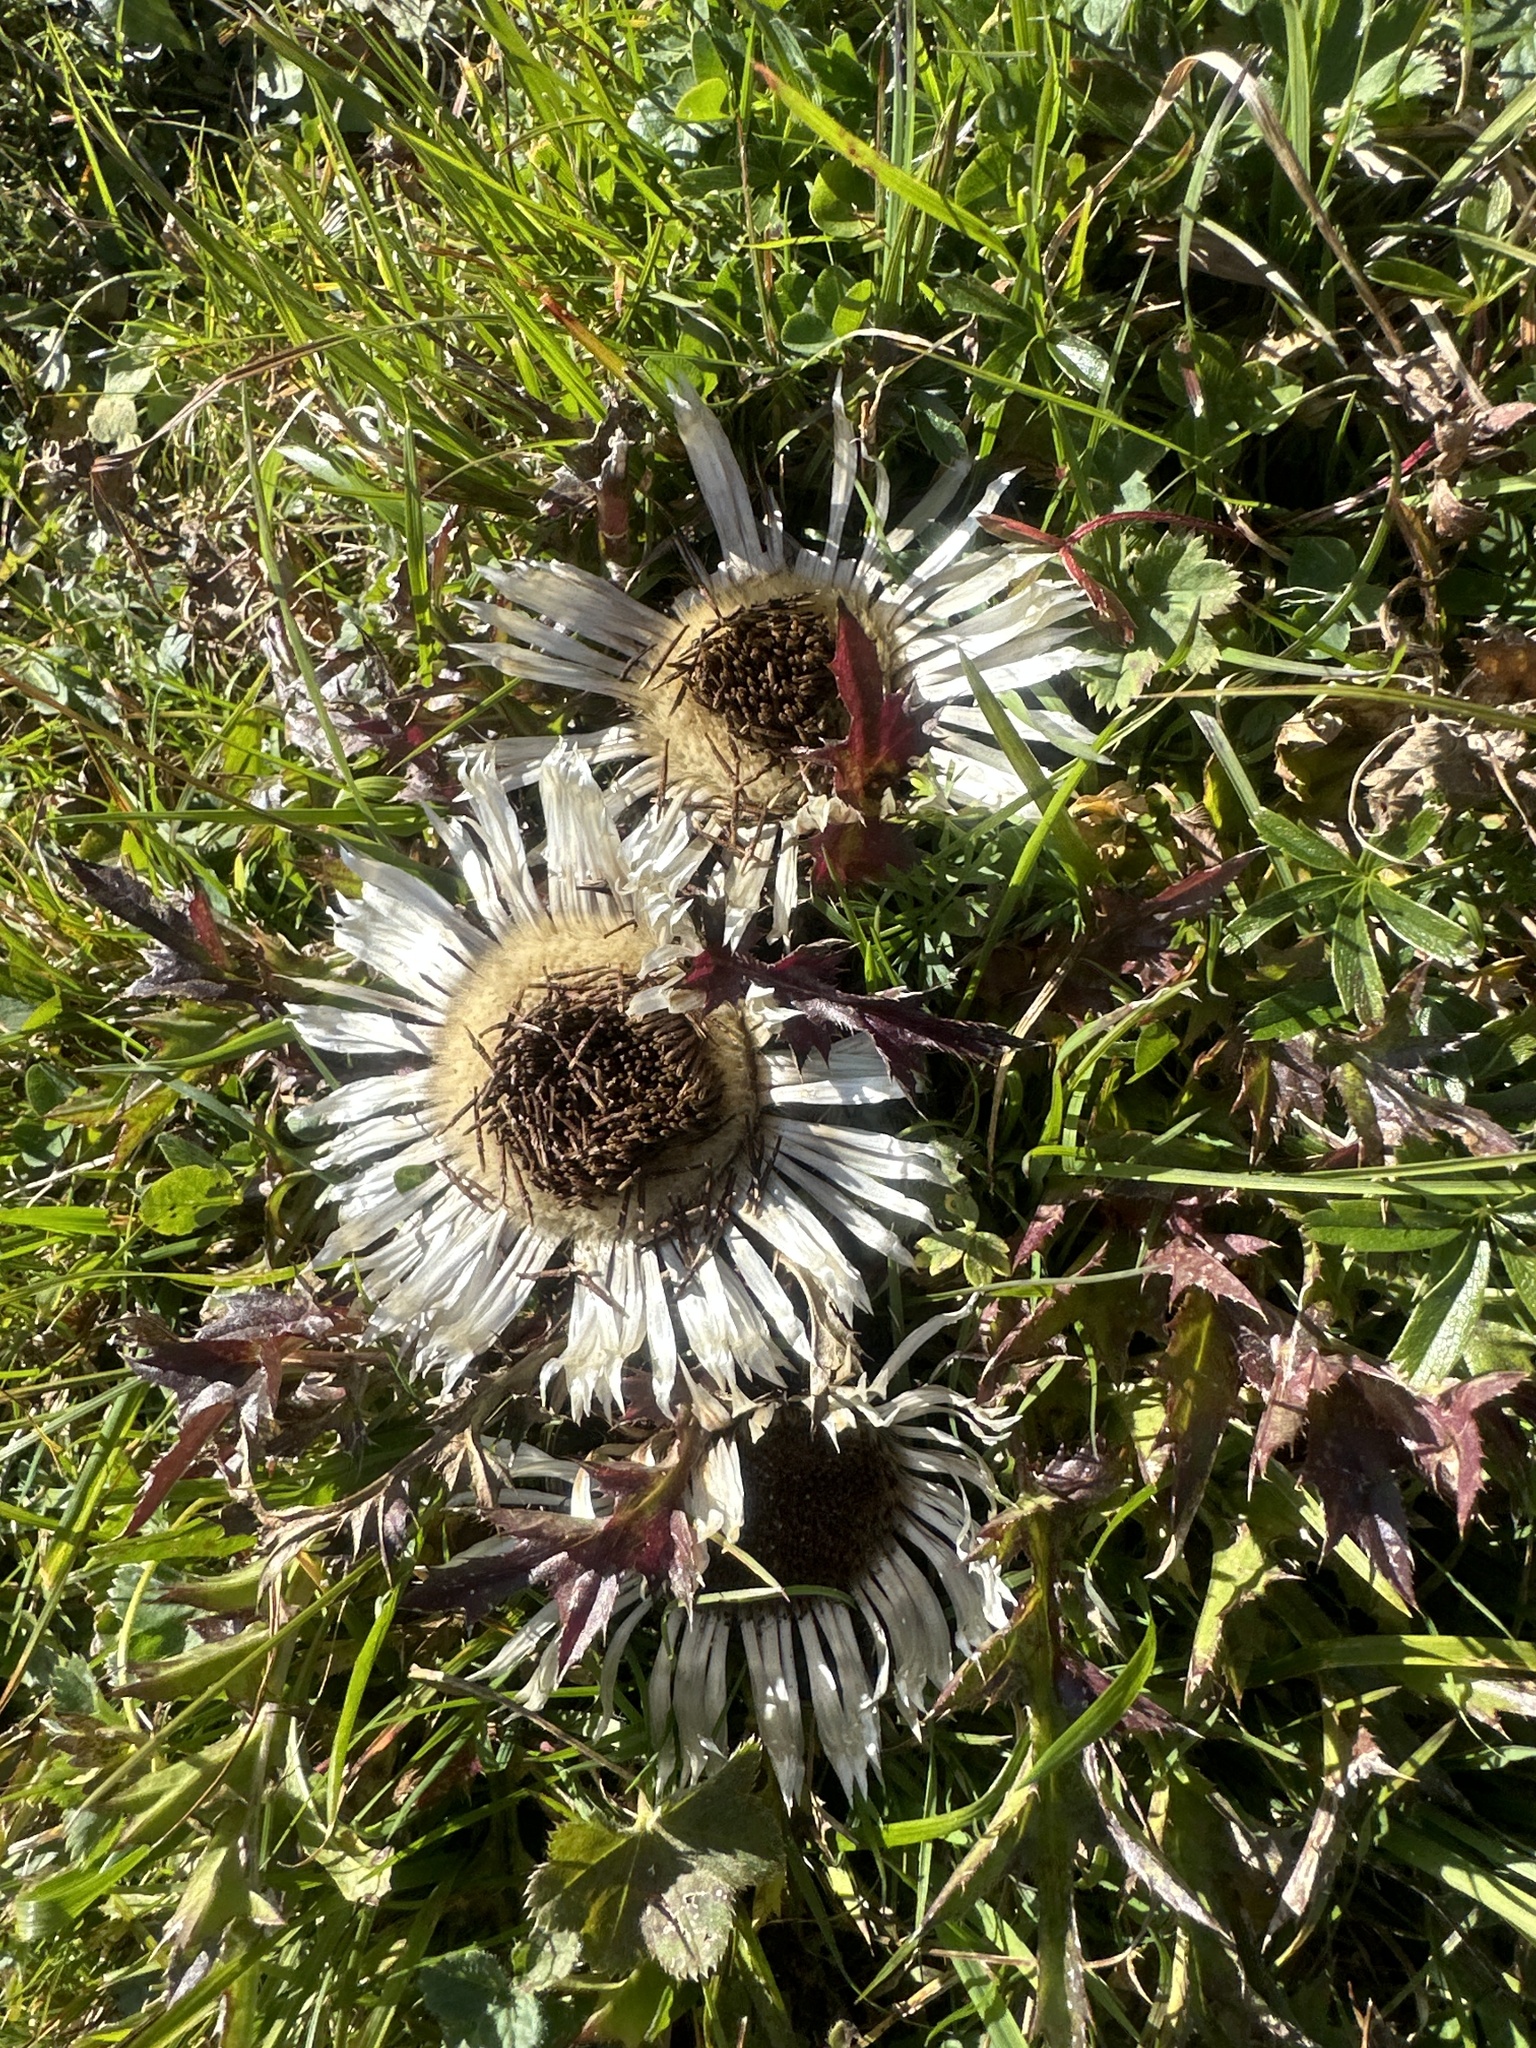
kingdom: Plantae
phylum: Tracheophyta
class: Magnoliopsida
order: Asterales
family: Asteraceae
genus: Carlina
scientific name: Carlina acaulis
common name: Stemless carline thistle
